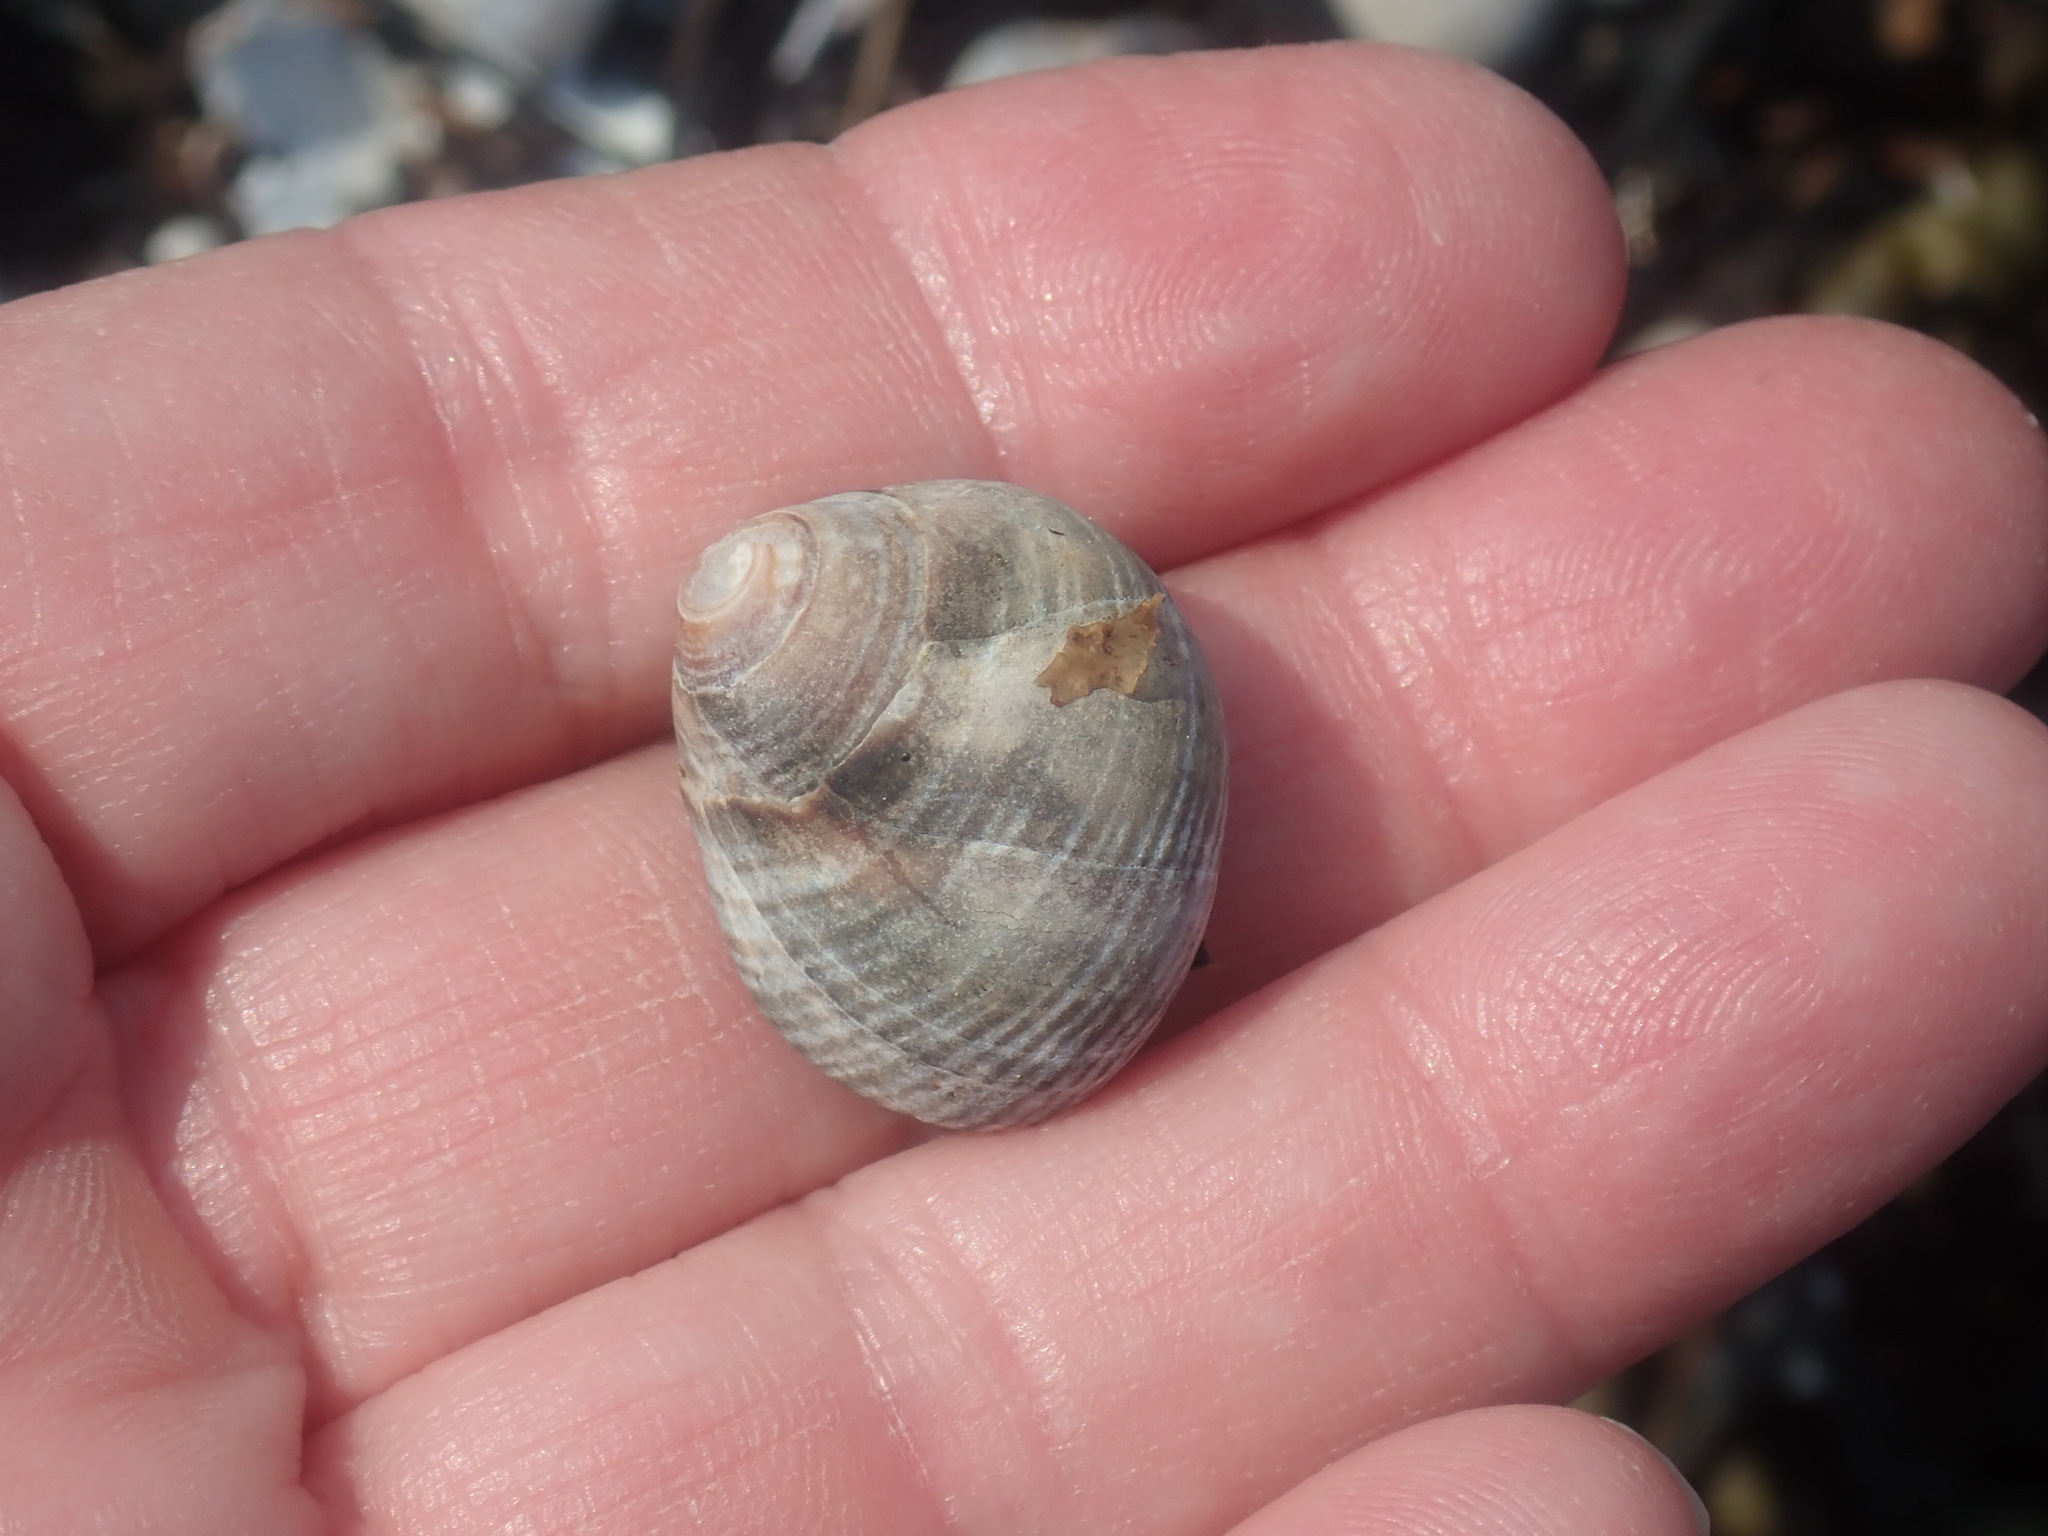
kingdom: Animalia
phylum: Mollusca
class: Gastropoda
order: Littorinimorpha
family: Littorinidae
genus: Littorina
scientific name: Littorina littorea
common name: Common periwinkle
